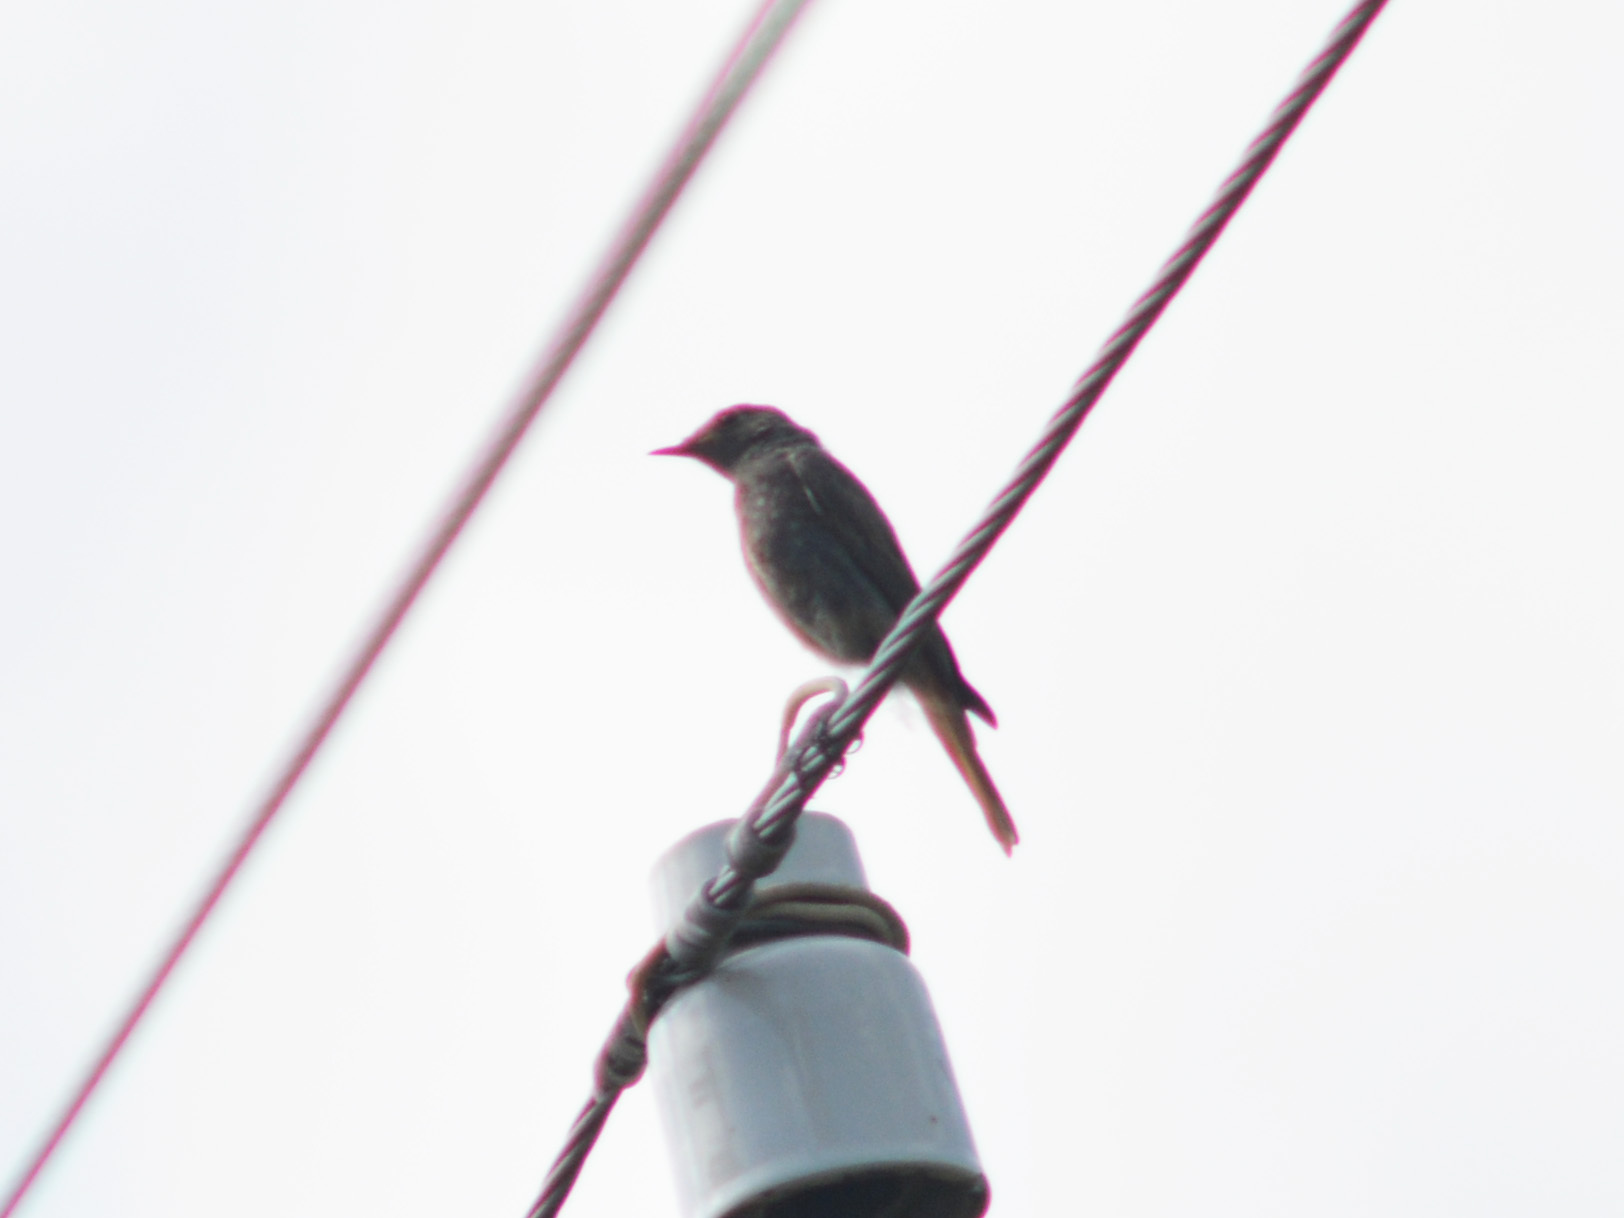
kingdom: Animalia
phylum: Chordata
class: Aves
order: Passeriformes
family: Muscicapidae
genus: Phoenicurus
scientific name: Phoenicurus ochruros
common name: Black redstart
